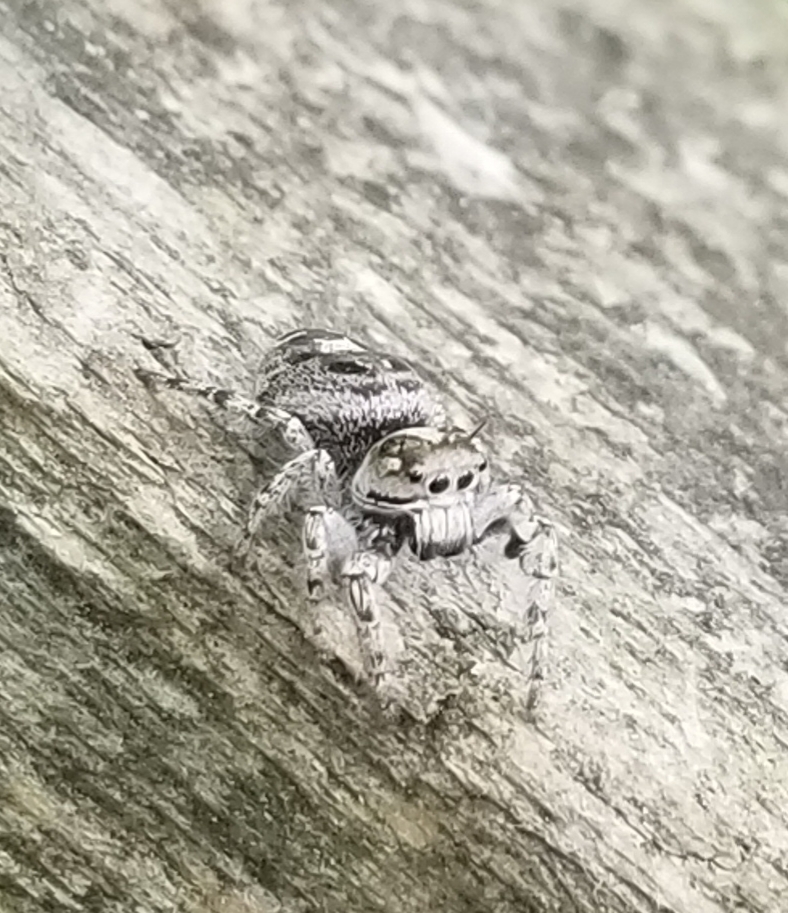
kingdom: Animalia
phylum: Arthropoda
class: Arachnida
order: Araneae
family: Salticidae
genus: Phidippus
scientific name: Phidippus putnami
